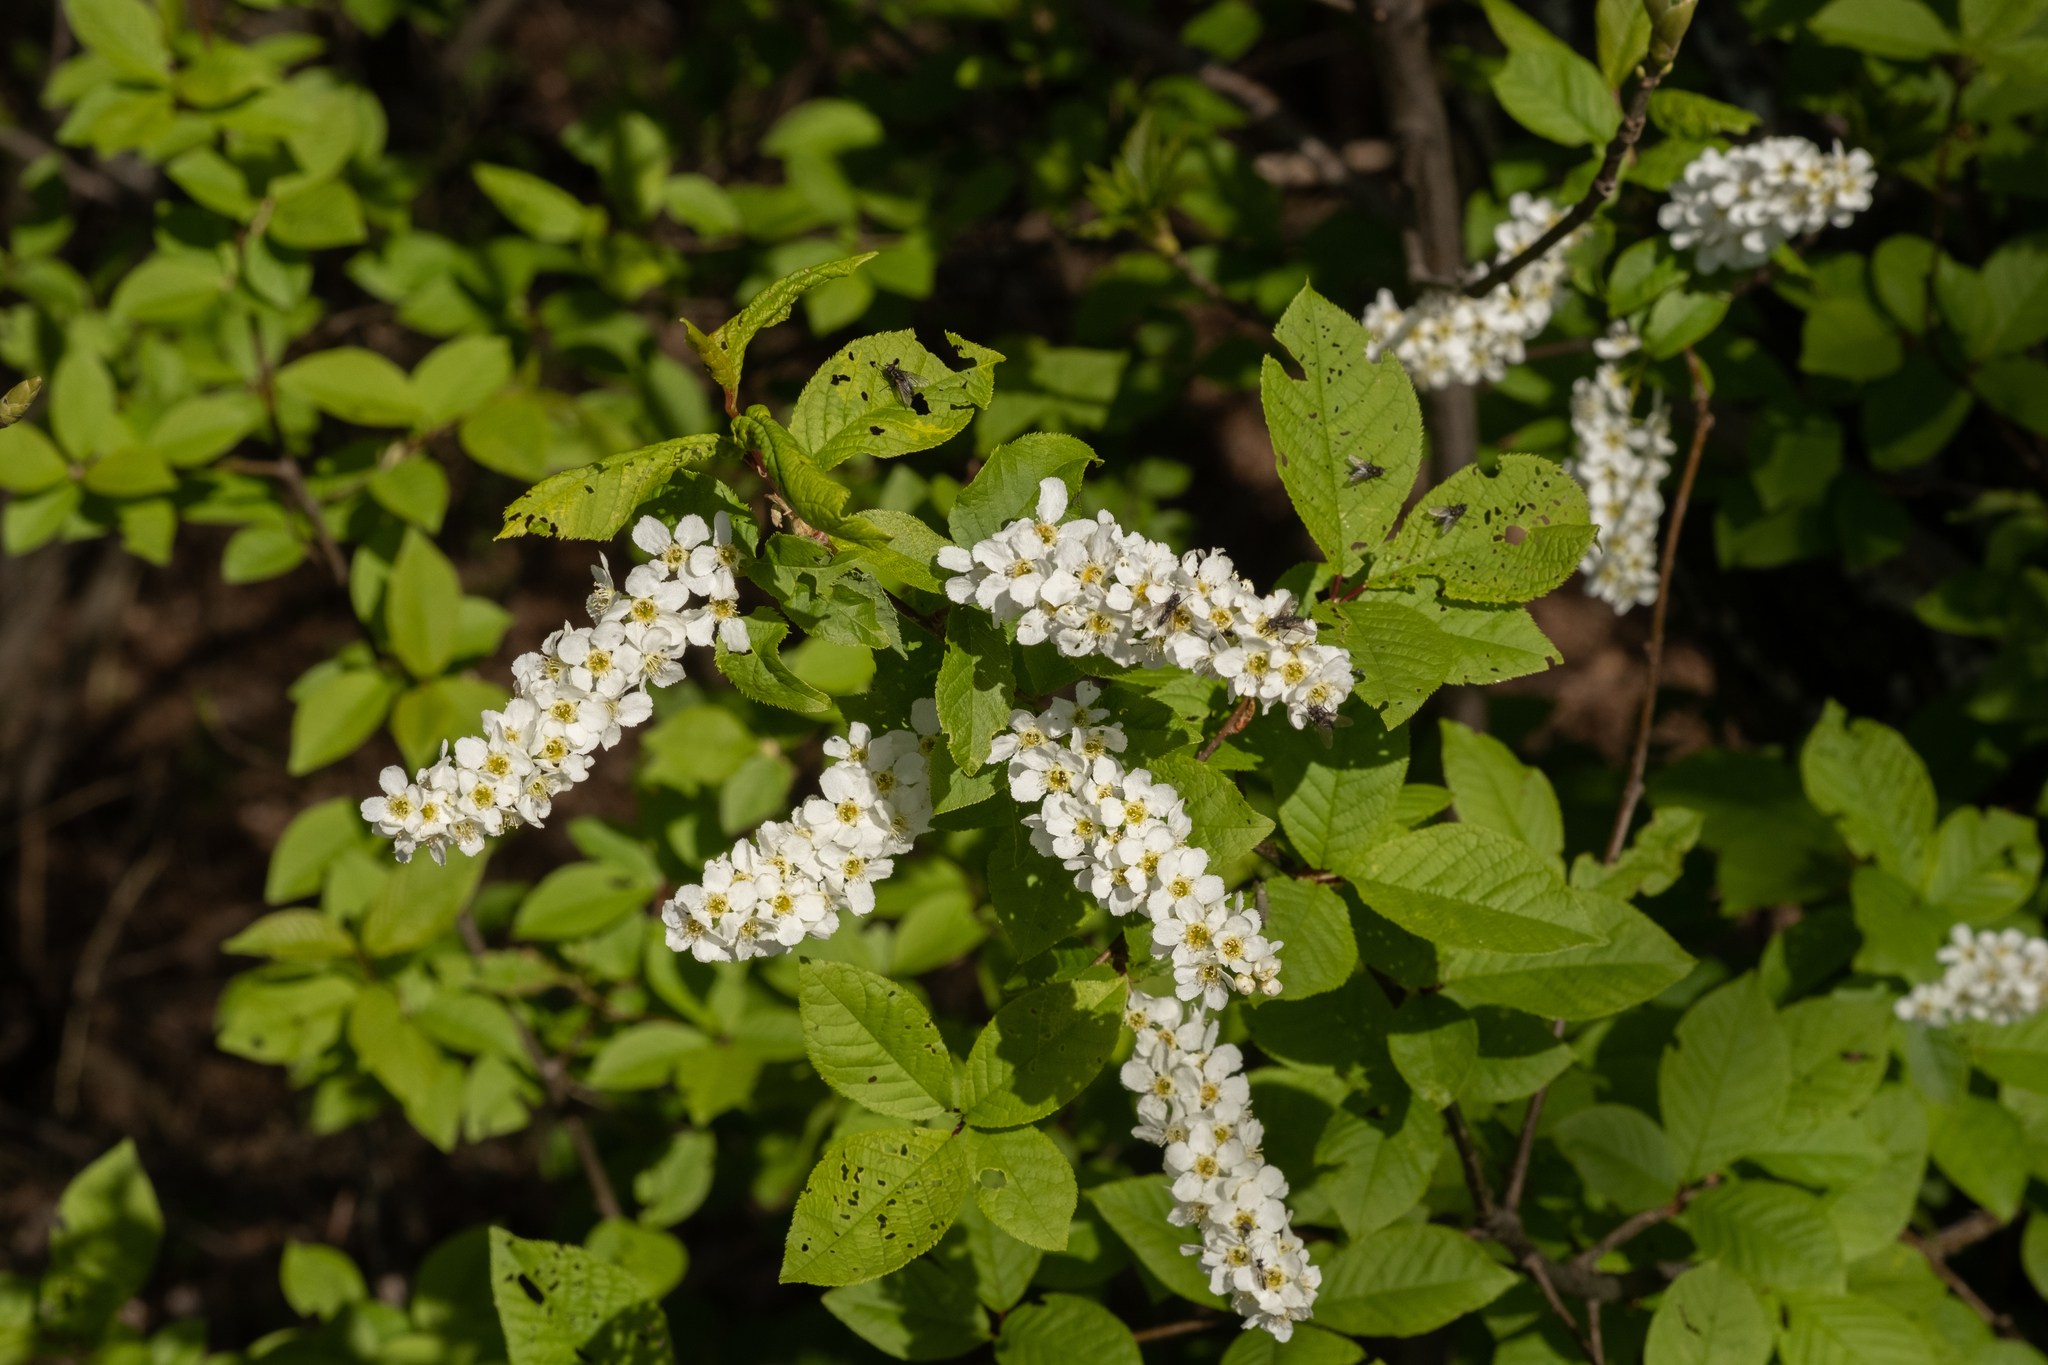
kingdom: Plantae
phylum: Tracheophyta
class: Magnoliopsida
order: Rosales
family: Rosaceae
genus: Prunus
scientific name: Prunus padus
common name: Bird cherry
